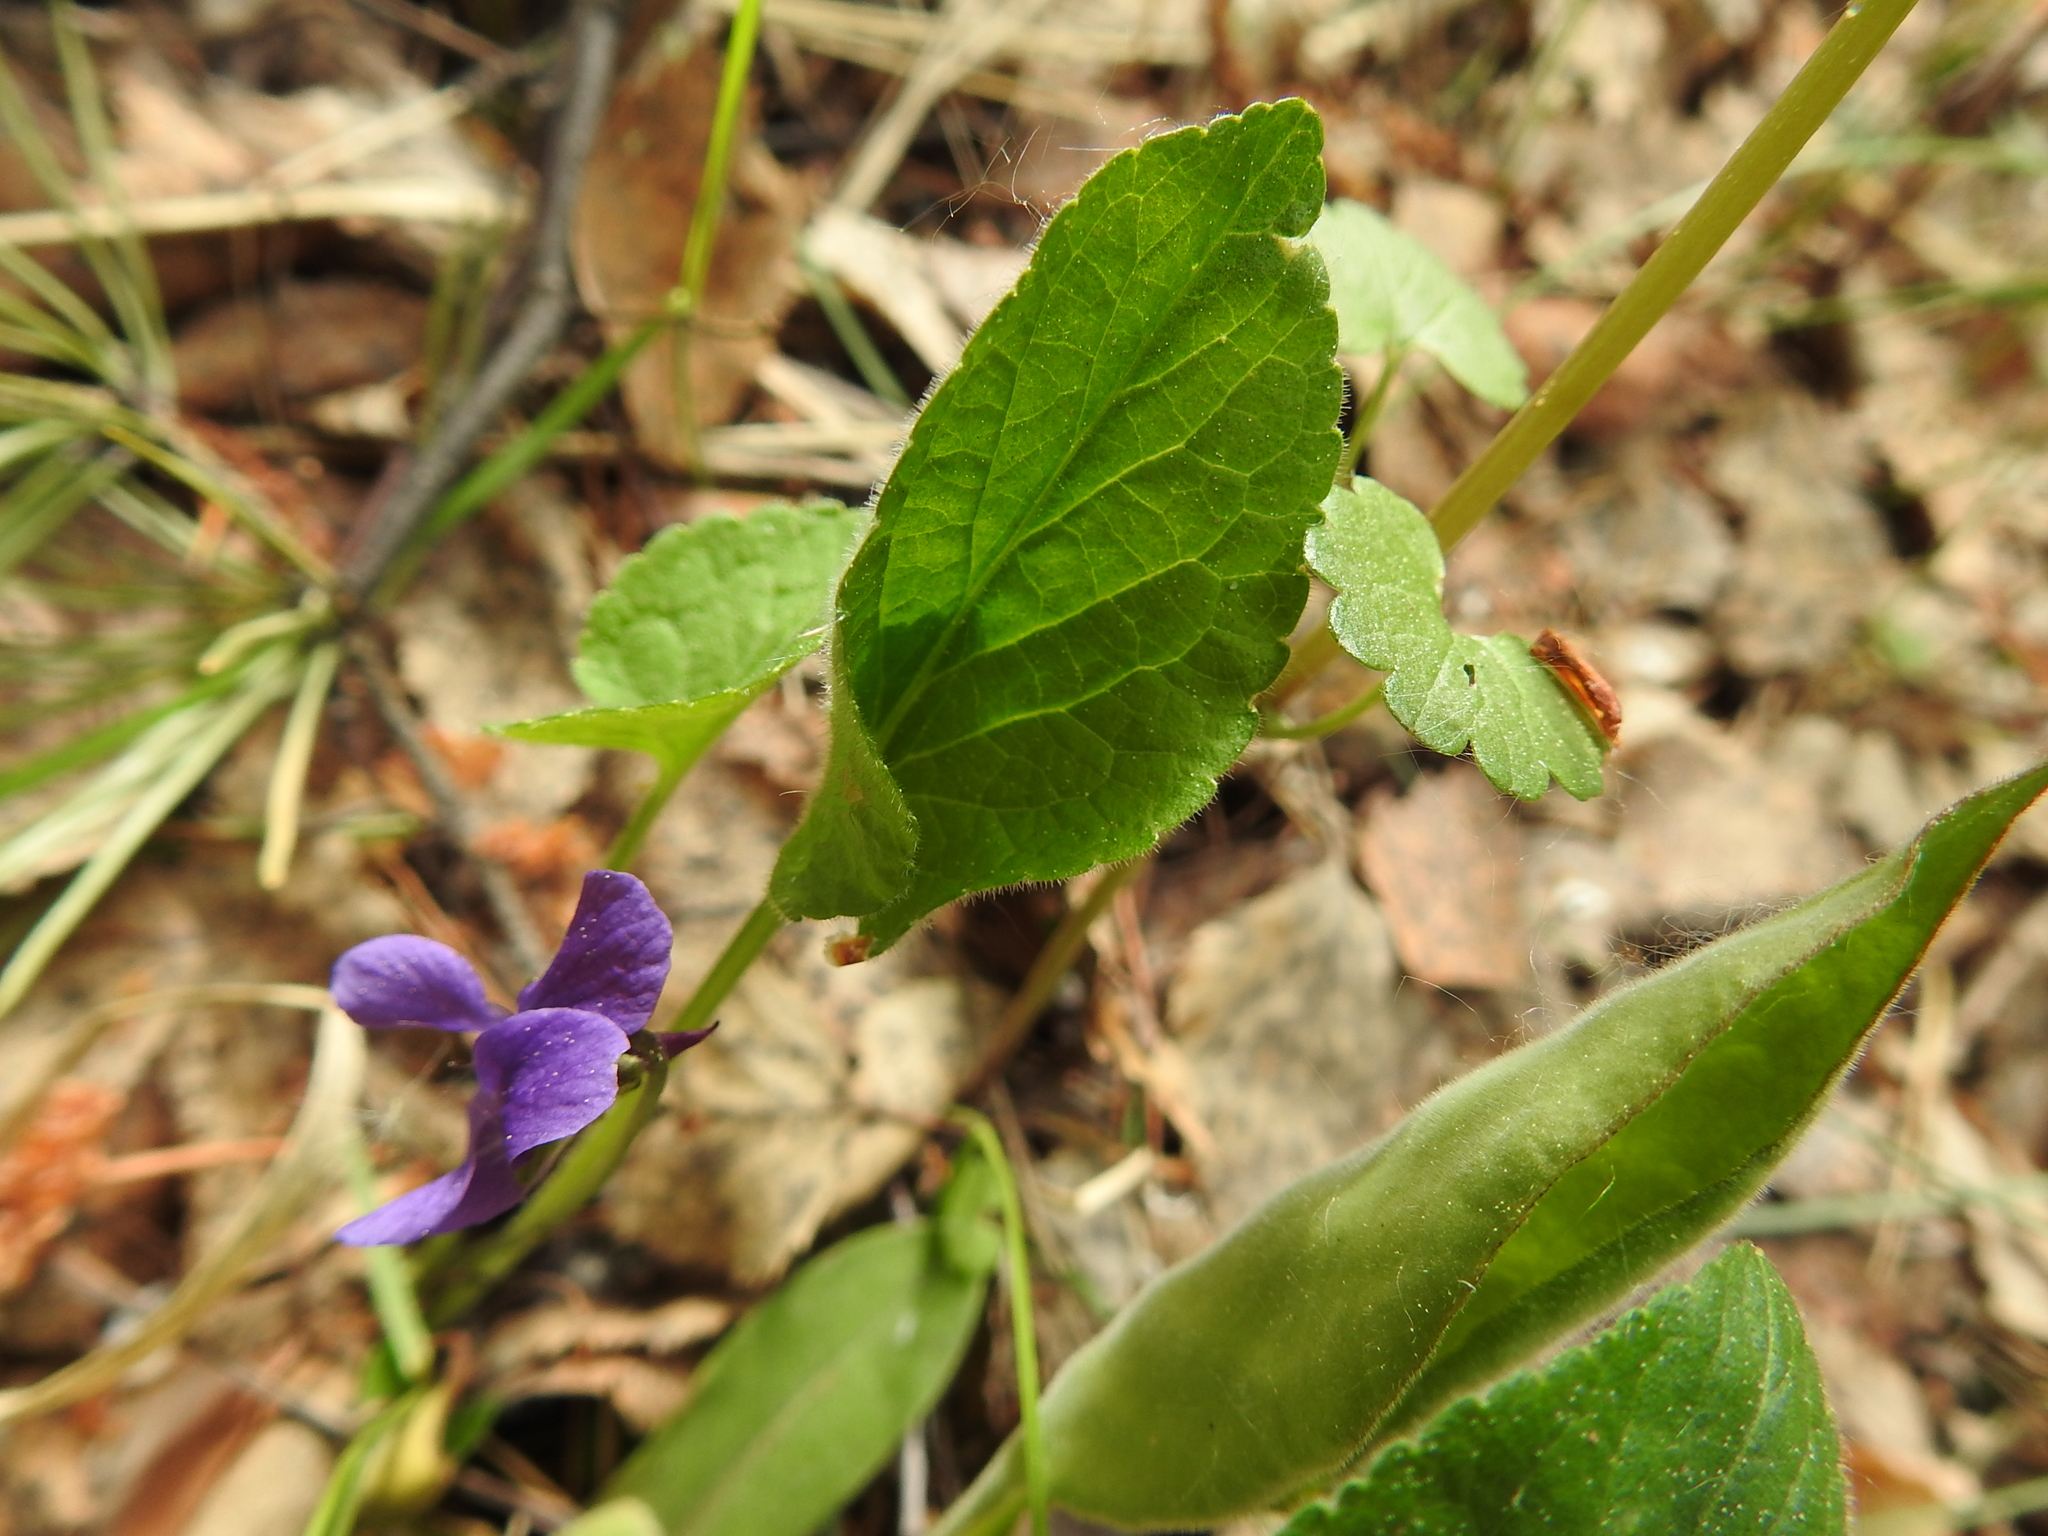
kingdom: Plantae
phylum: Tracheophyta
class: Magnoliopsida
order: Malpighiales
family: Violaceae
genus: Viola
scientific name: Viola hirta
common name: Hairy violet
